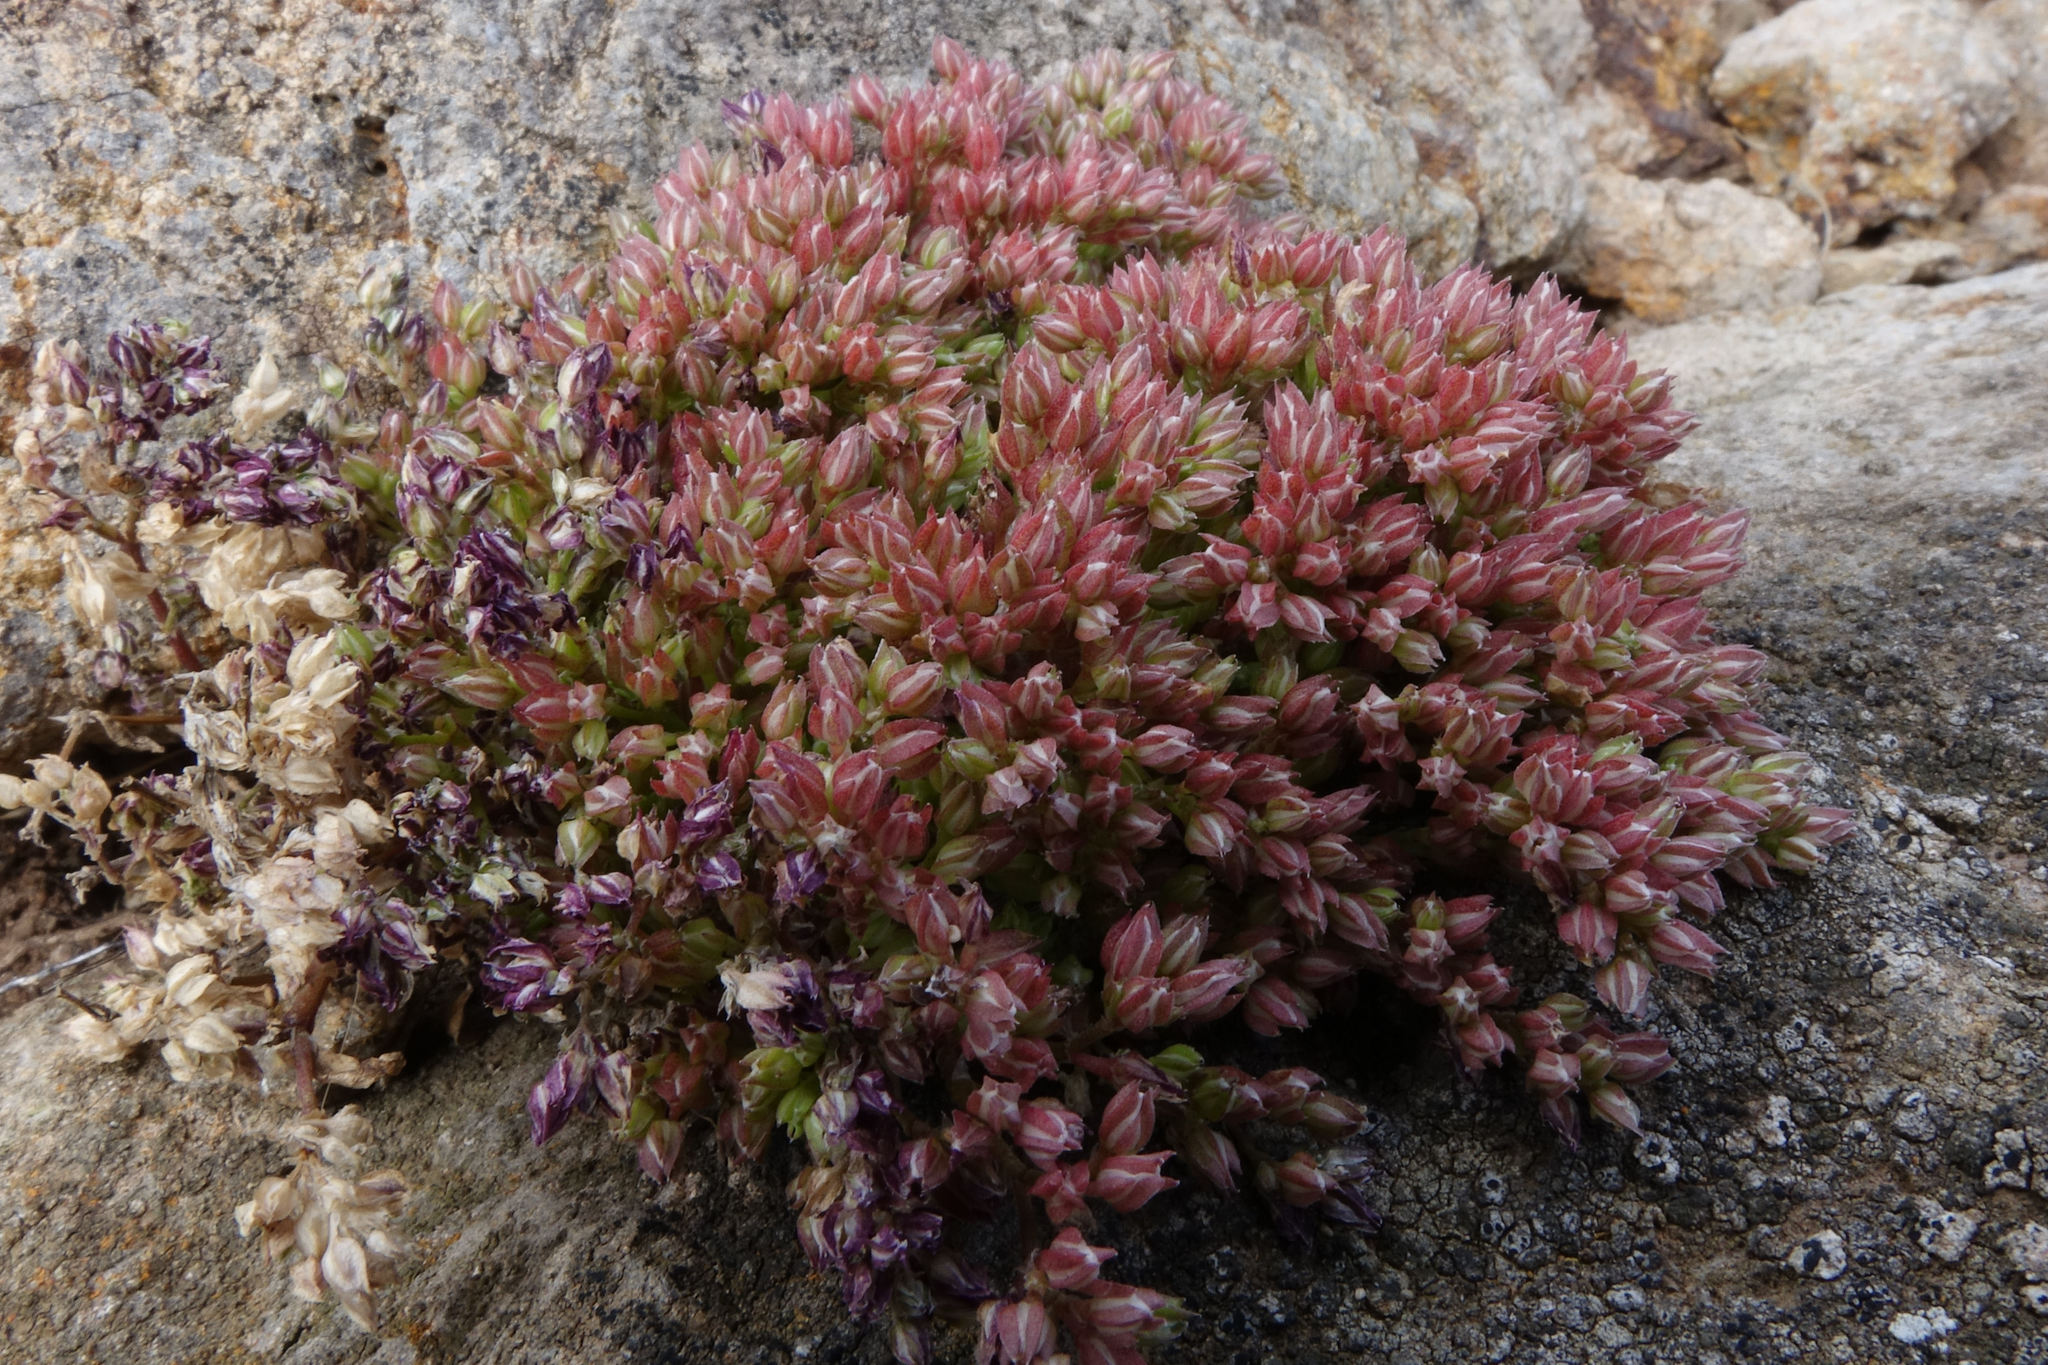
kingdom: Plantae
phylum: Tracheophyta
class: Magnoliopsida
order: Caryophyllales
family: Caryophyllaceae
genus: Polycarpon
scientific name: Polycarpon tetraphyllum
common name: Four-leaved all-seed
